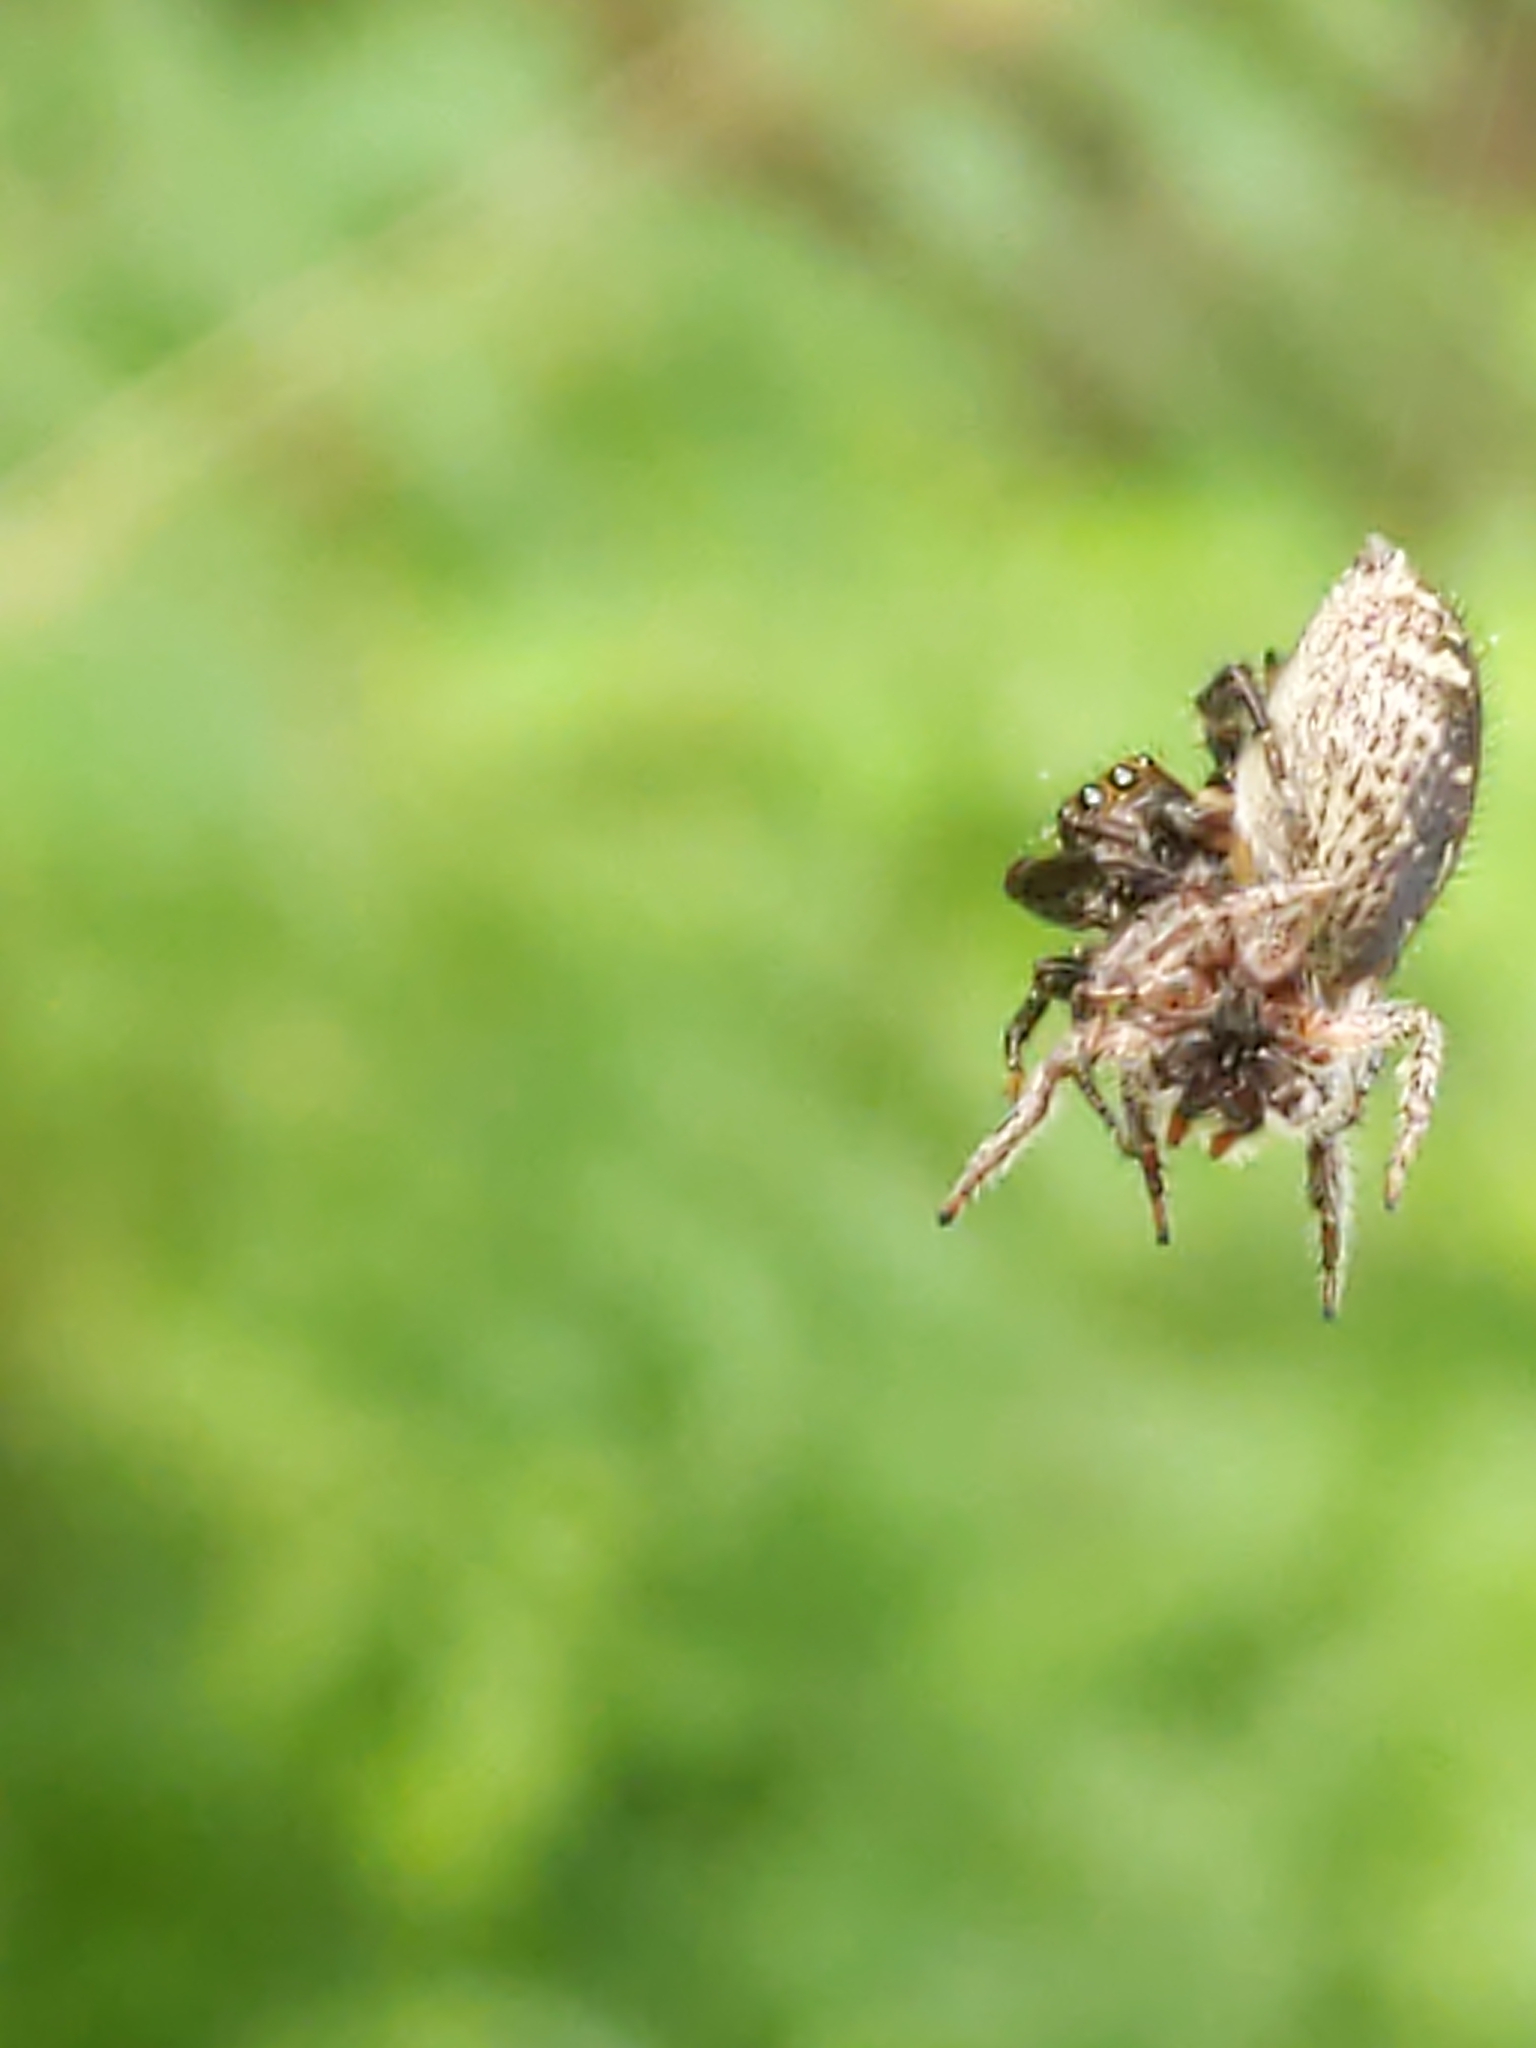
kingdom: Animalia
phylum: Arthropoda
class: Arachnida
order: Araneae
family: Salticidae
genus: Eris
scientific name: Eris militaris
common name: Bronze jumper
